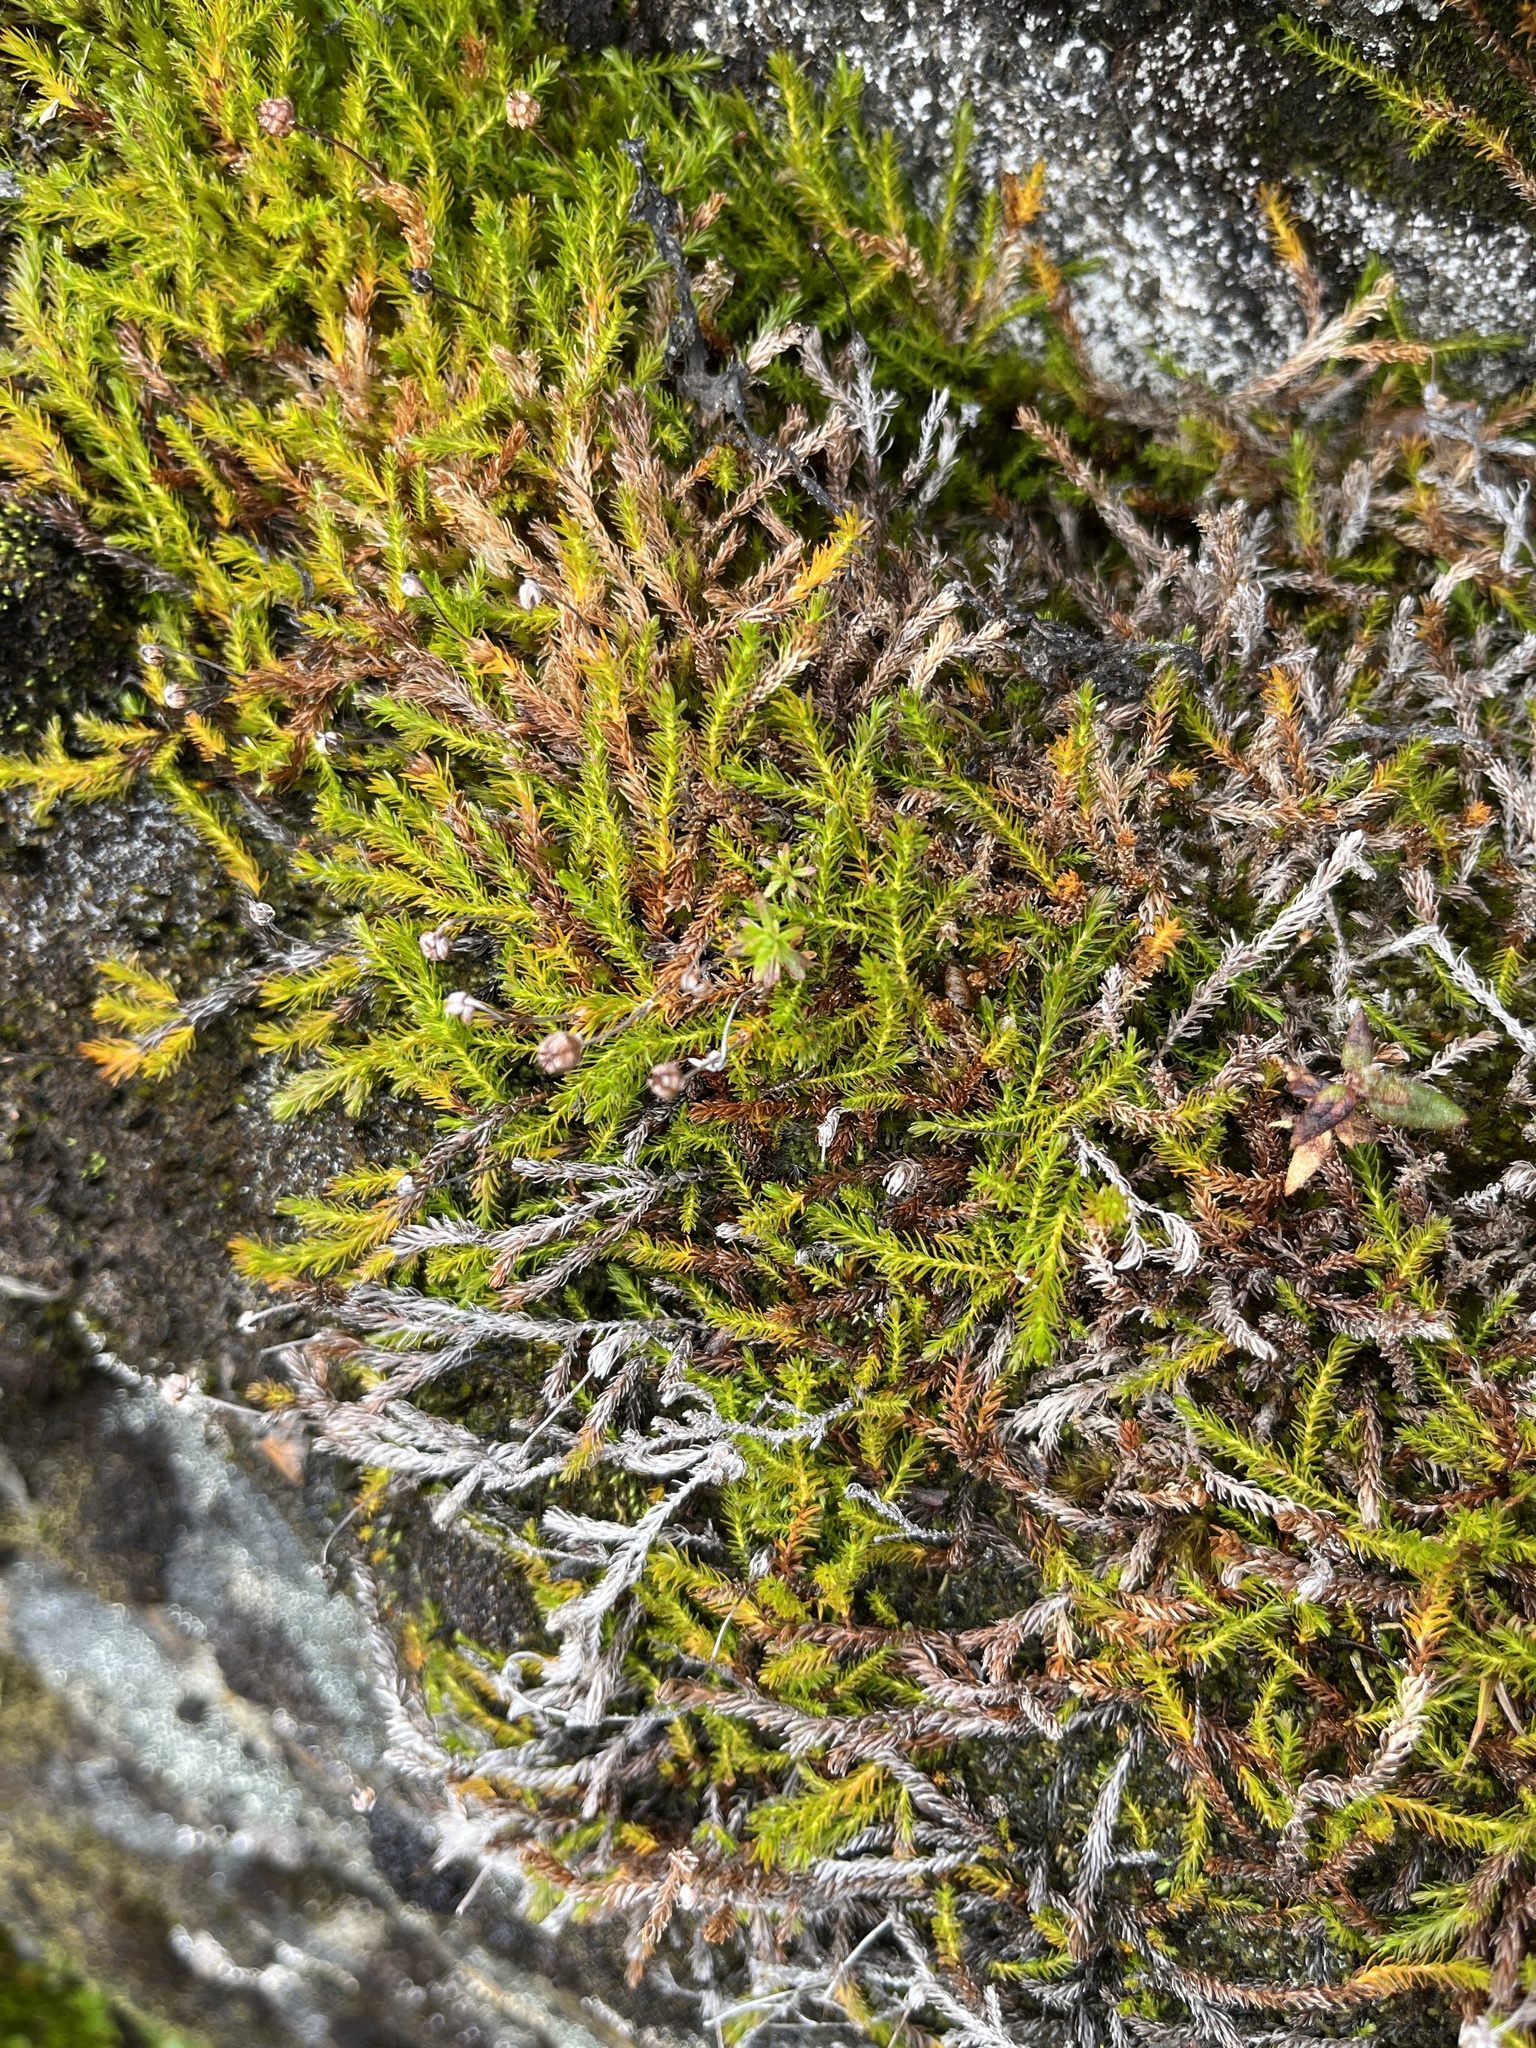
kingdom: Plantae
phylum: Tracheophyta
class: Magnoliopsida
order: Ericales
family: Ericaceae
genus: Harrimanella
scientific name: Harrimanella hypnoides
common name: Moss bell heather
